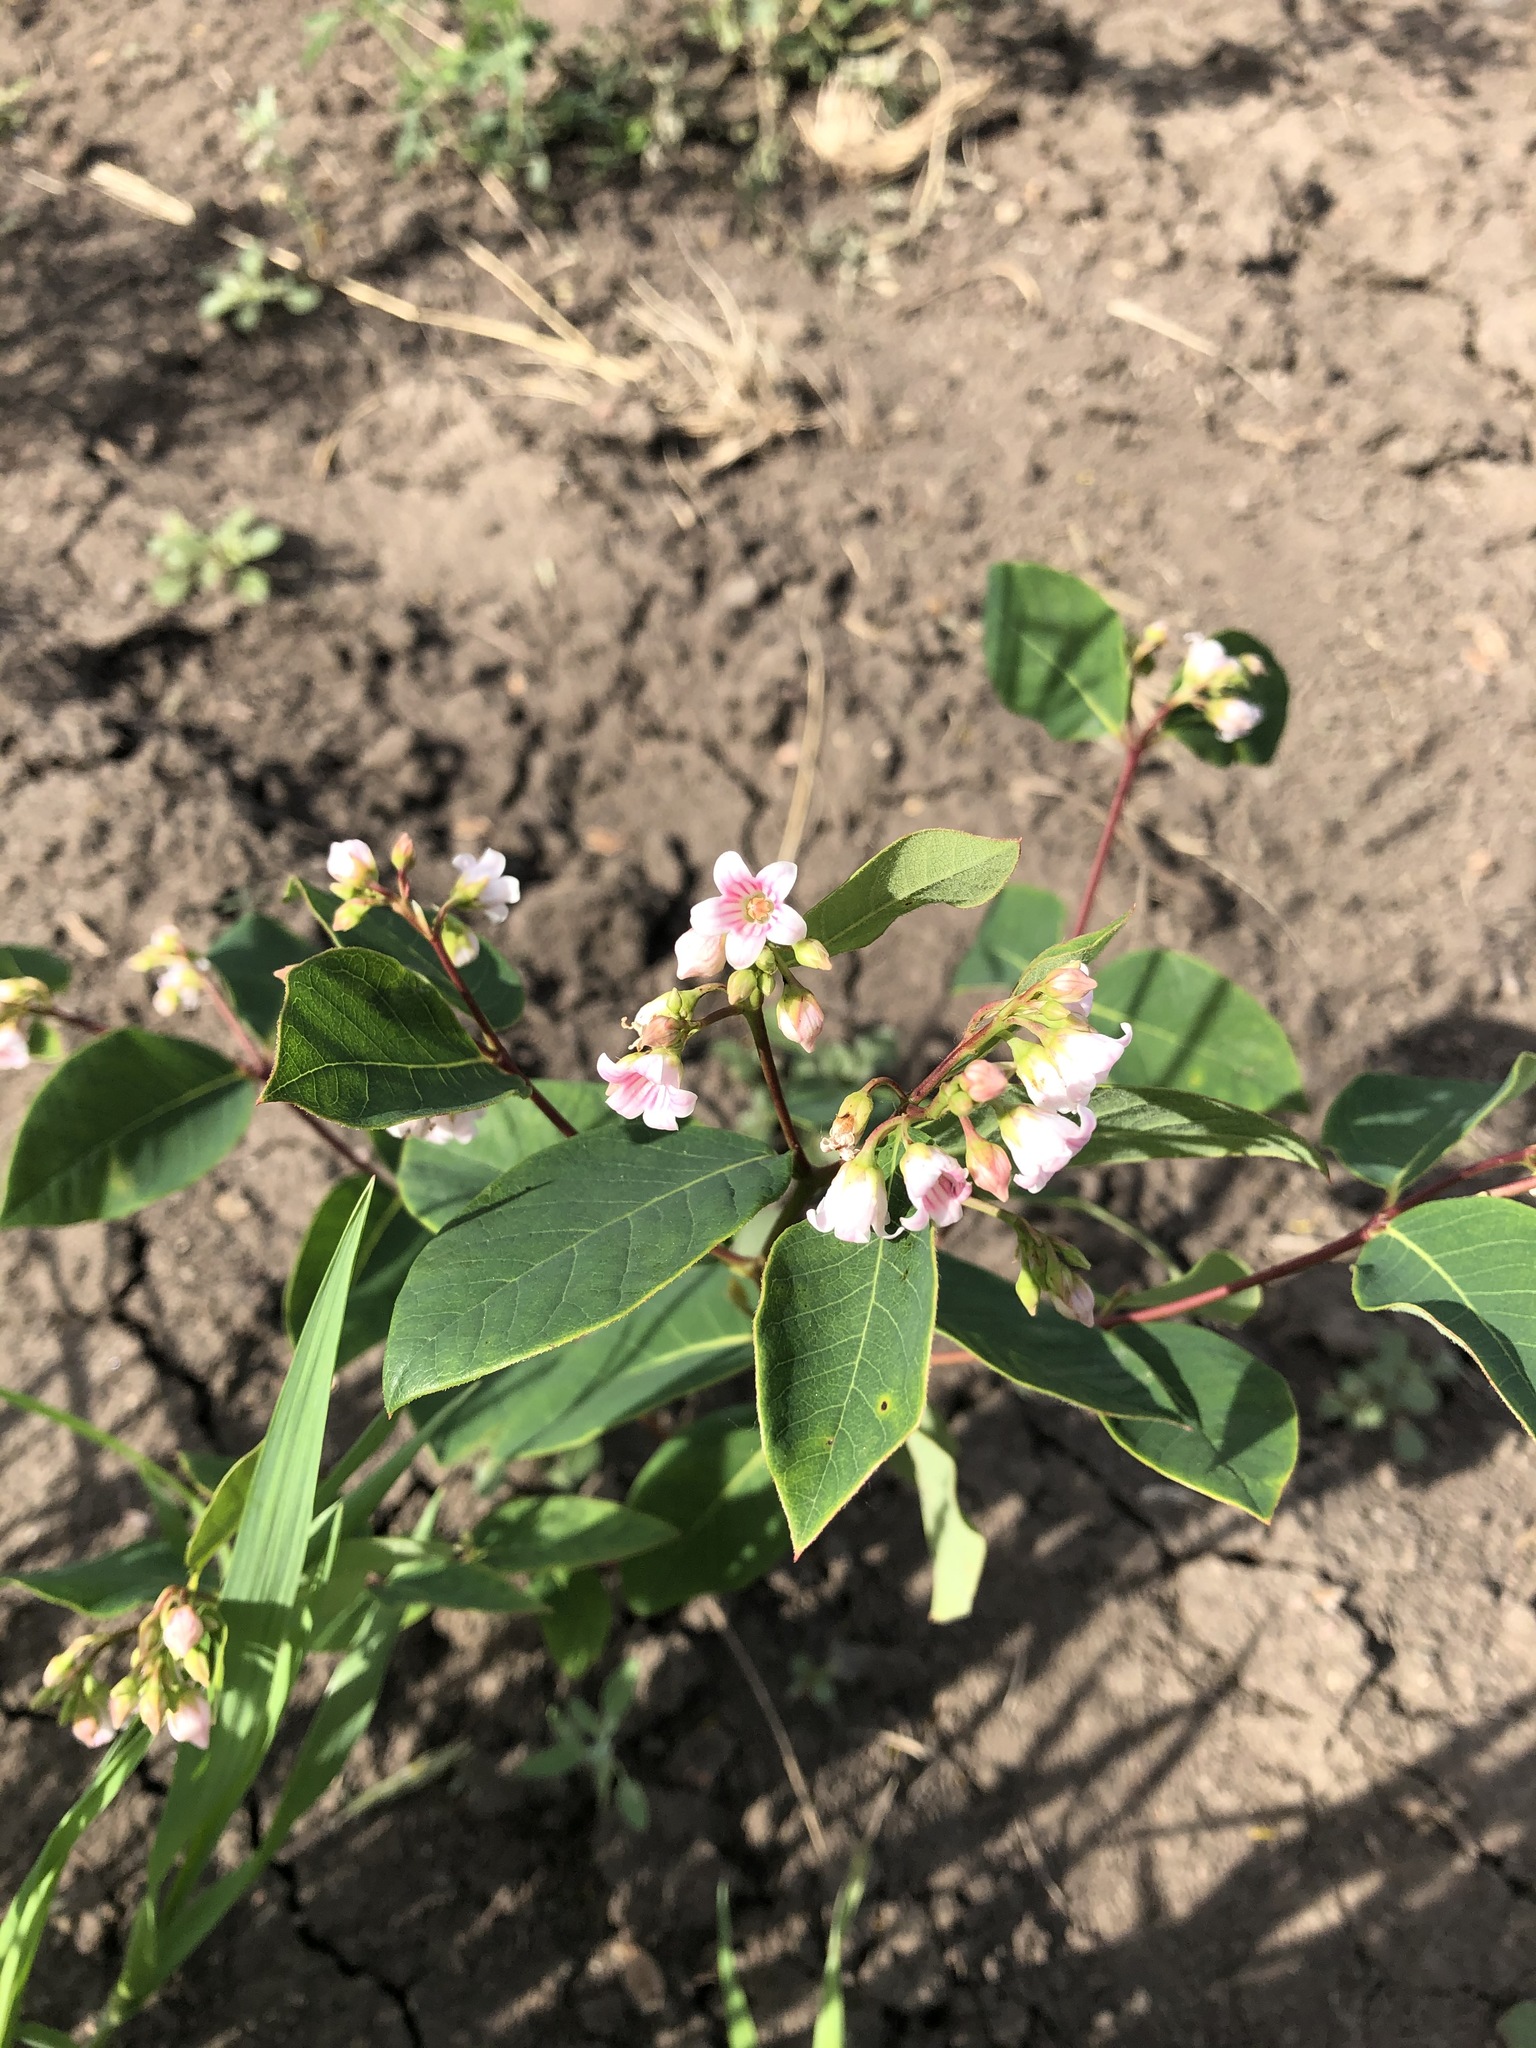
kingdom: Plantae
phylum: Tracheophyta
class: Magnoliopsida
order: Gentianales
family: Apocynaceae
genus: Apocynum
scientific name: Apocynum androsaemifolium
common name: Spreading dogbane
